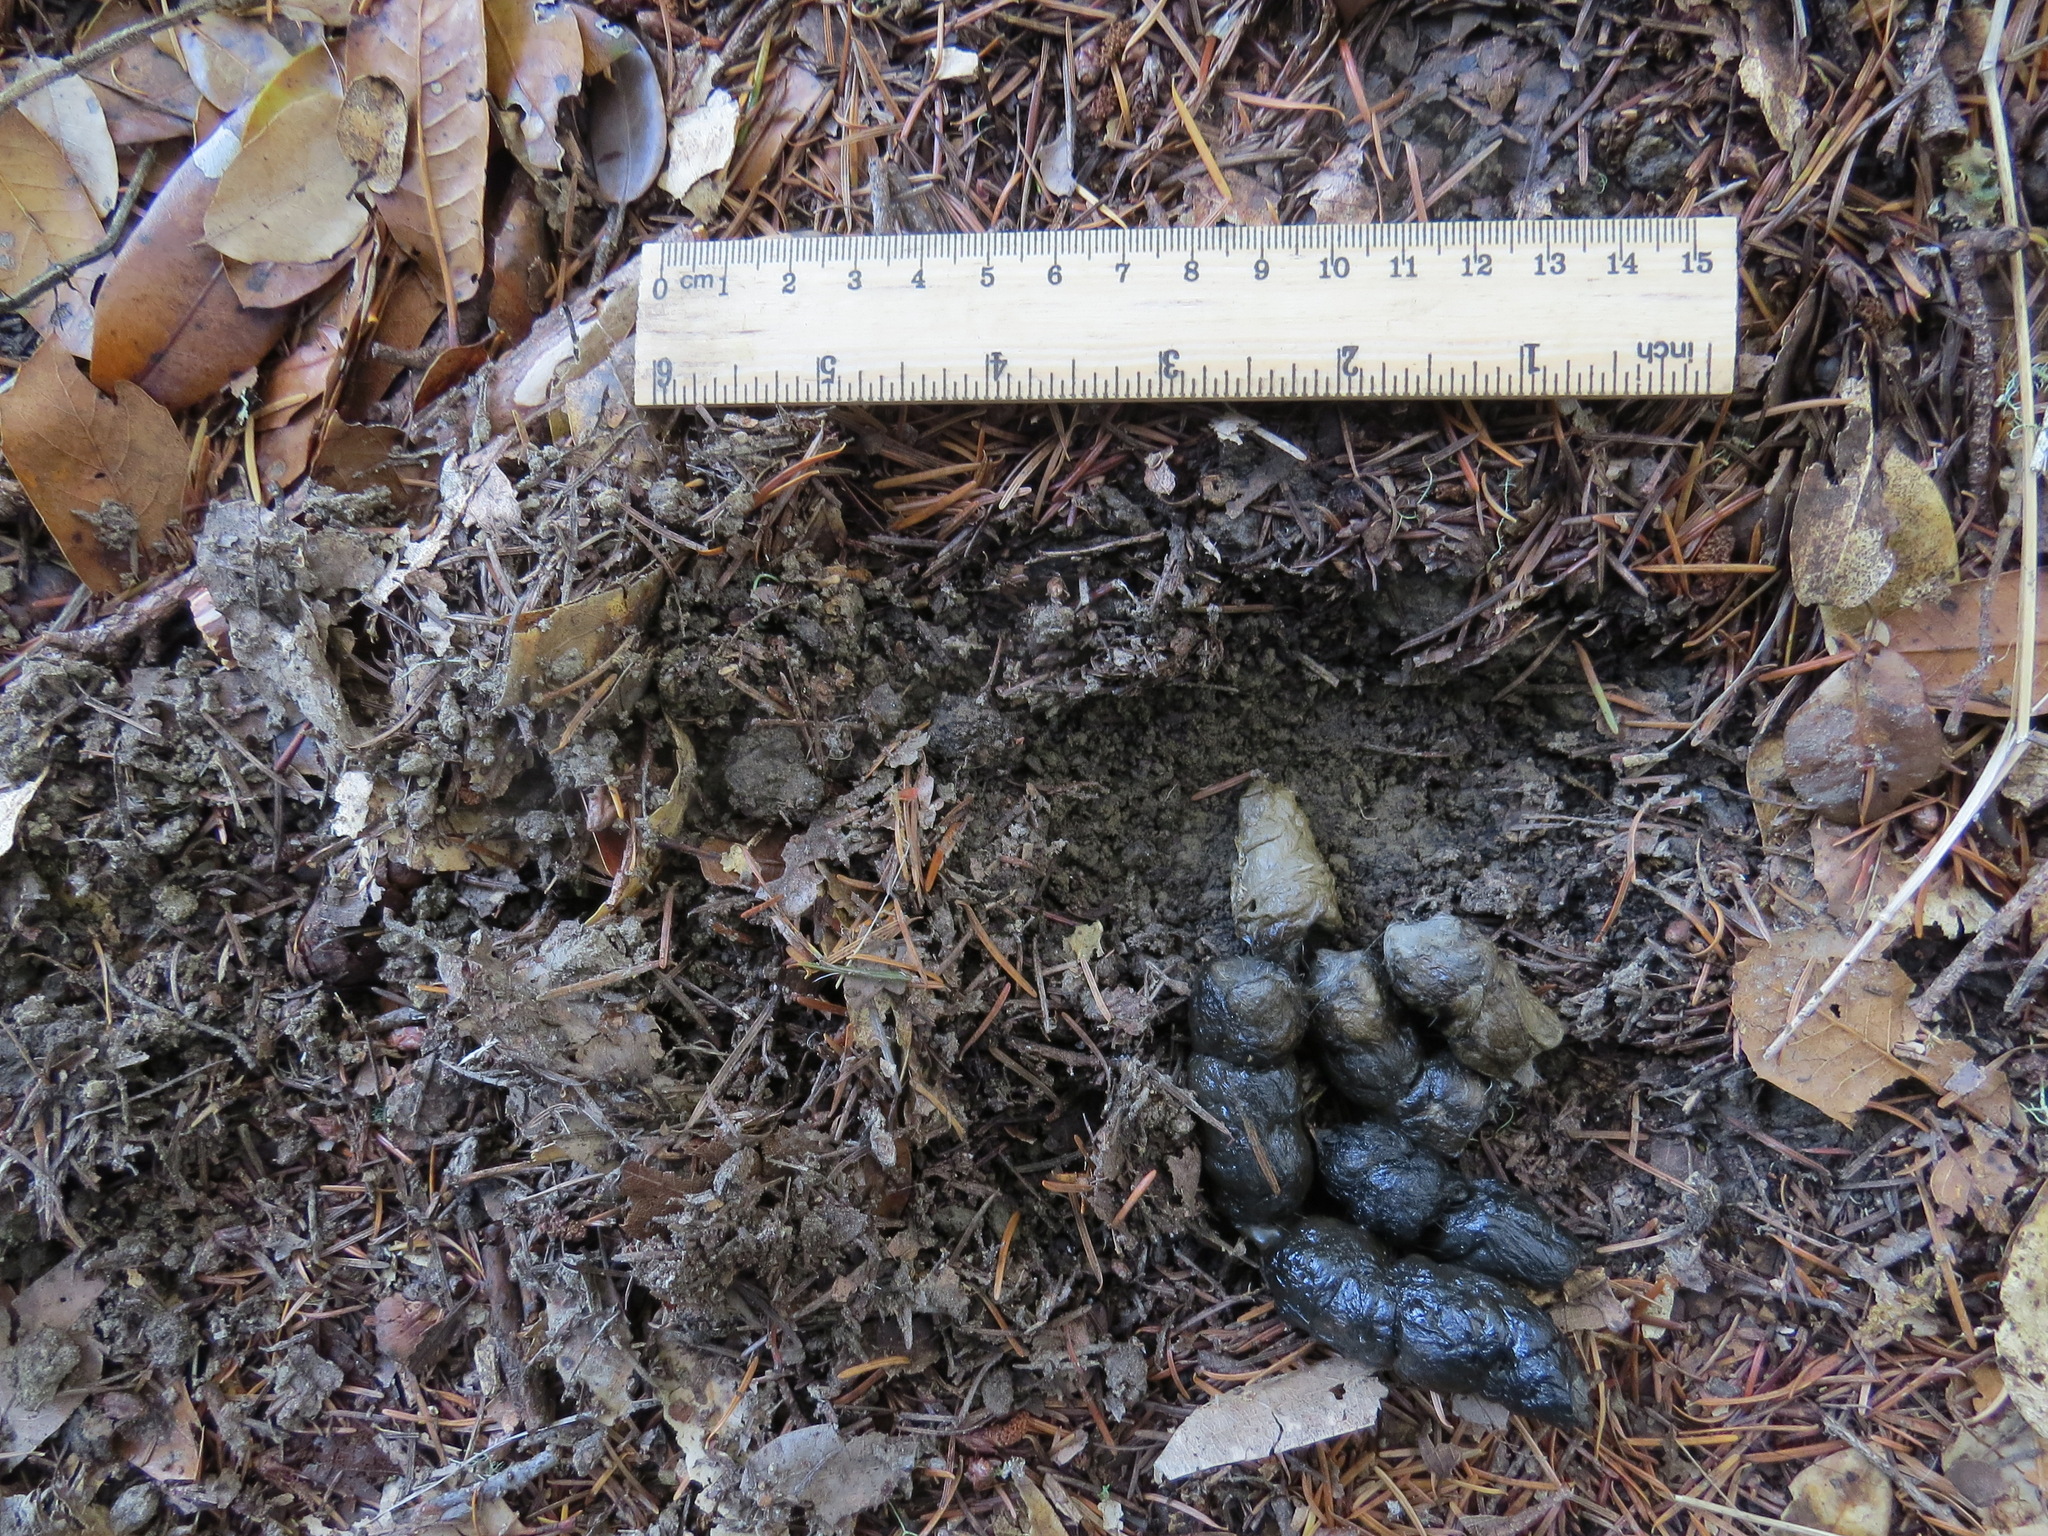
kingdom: Animalia
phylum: Chordata
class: Mammalia
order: Carnivora
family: Felidae
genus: Lynx
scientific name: Lynx rufus
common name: Bobcat
